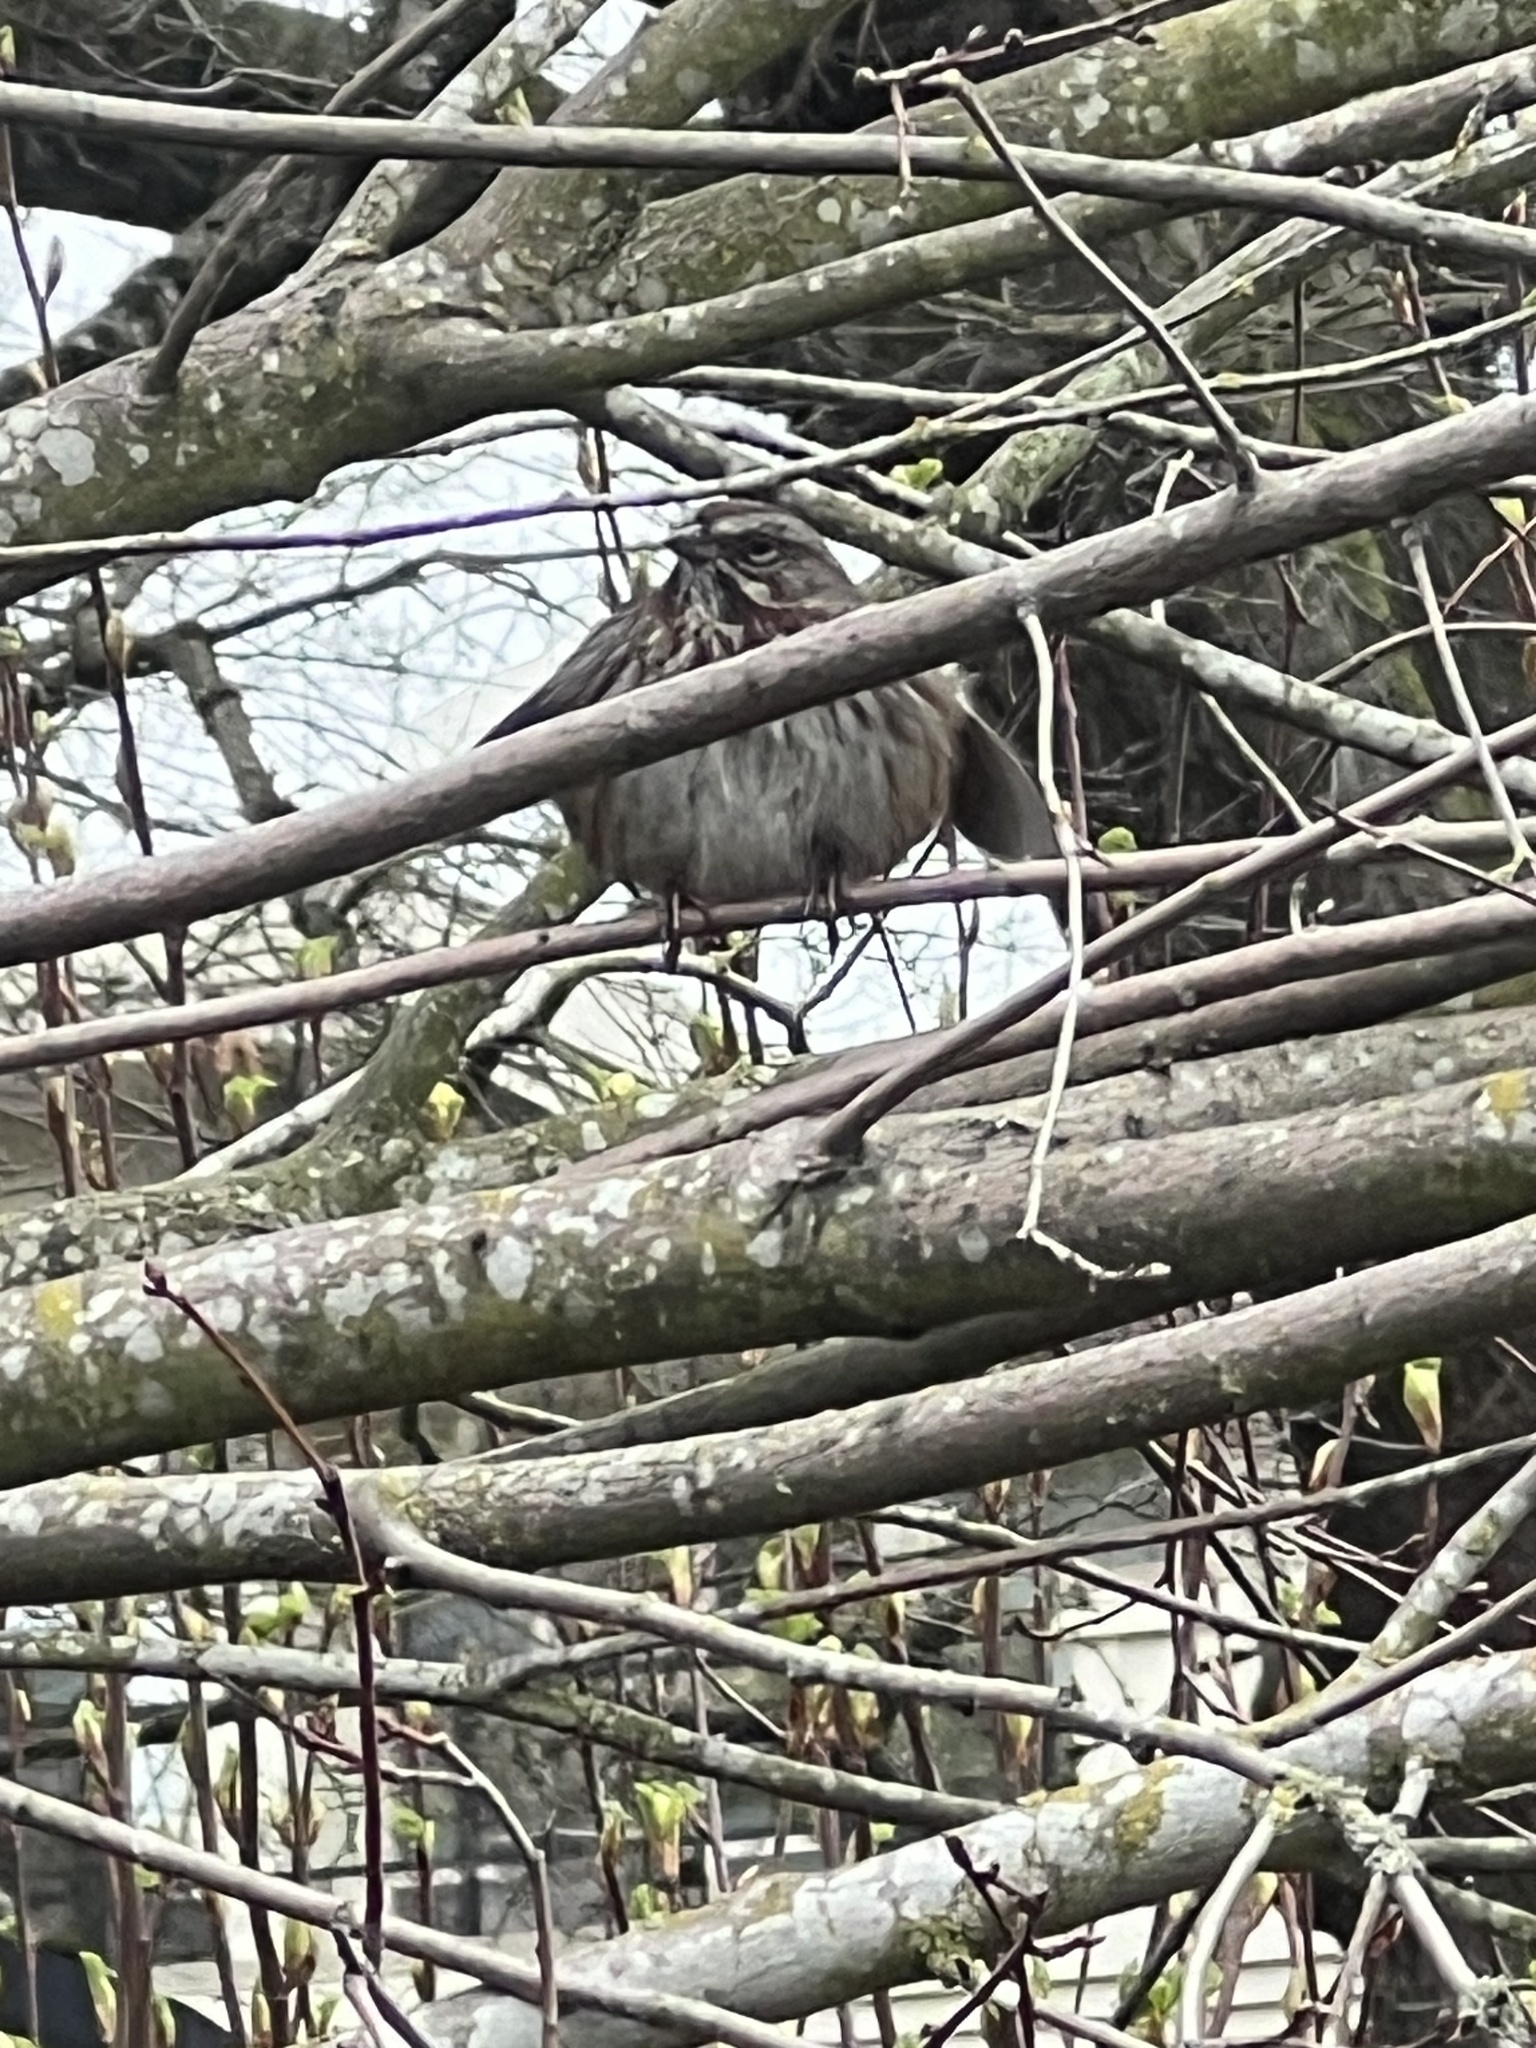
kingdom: Animalia
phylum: Chordata
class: Aves
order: Passeriformes
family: Passerellidae
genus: Melospiza
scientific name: Melospiza melodia
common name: Song sparrow
